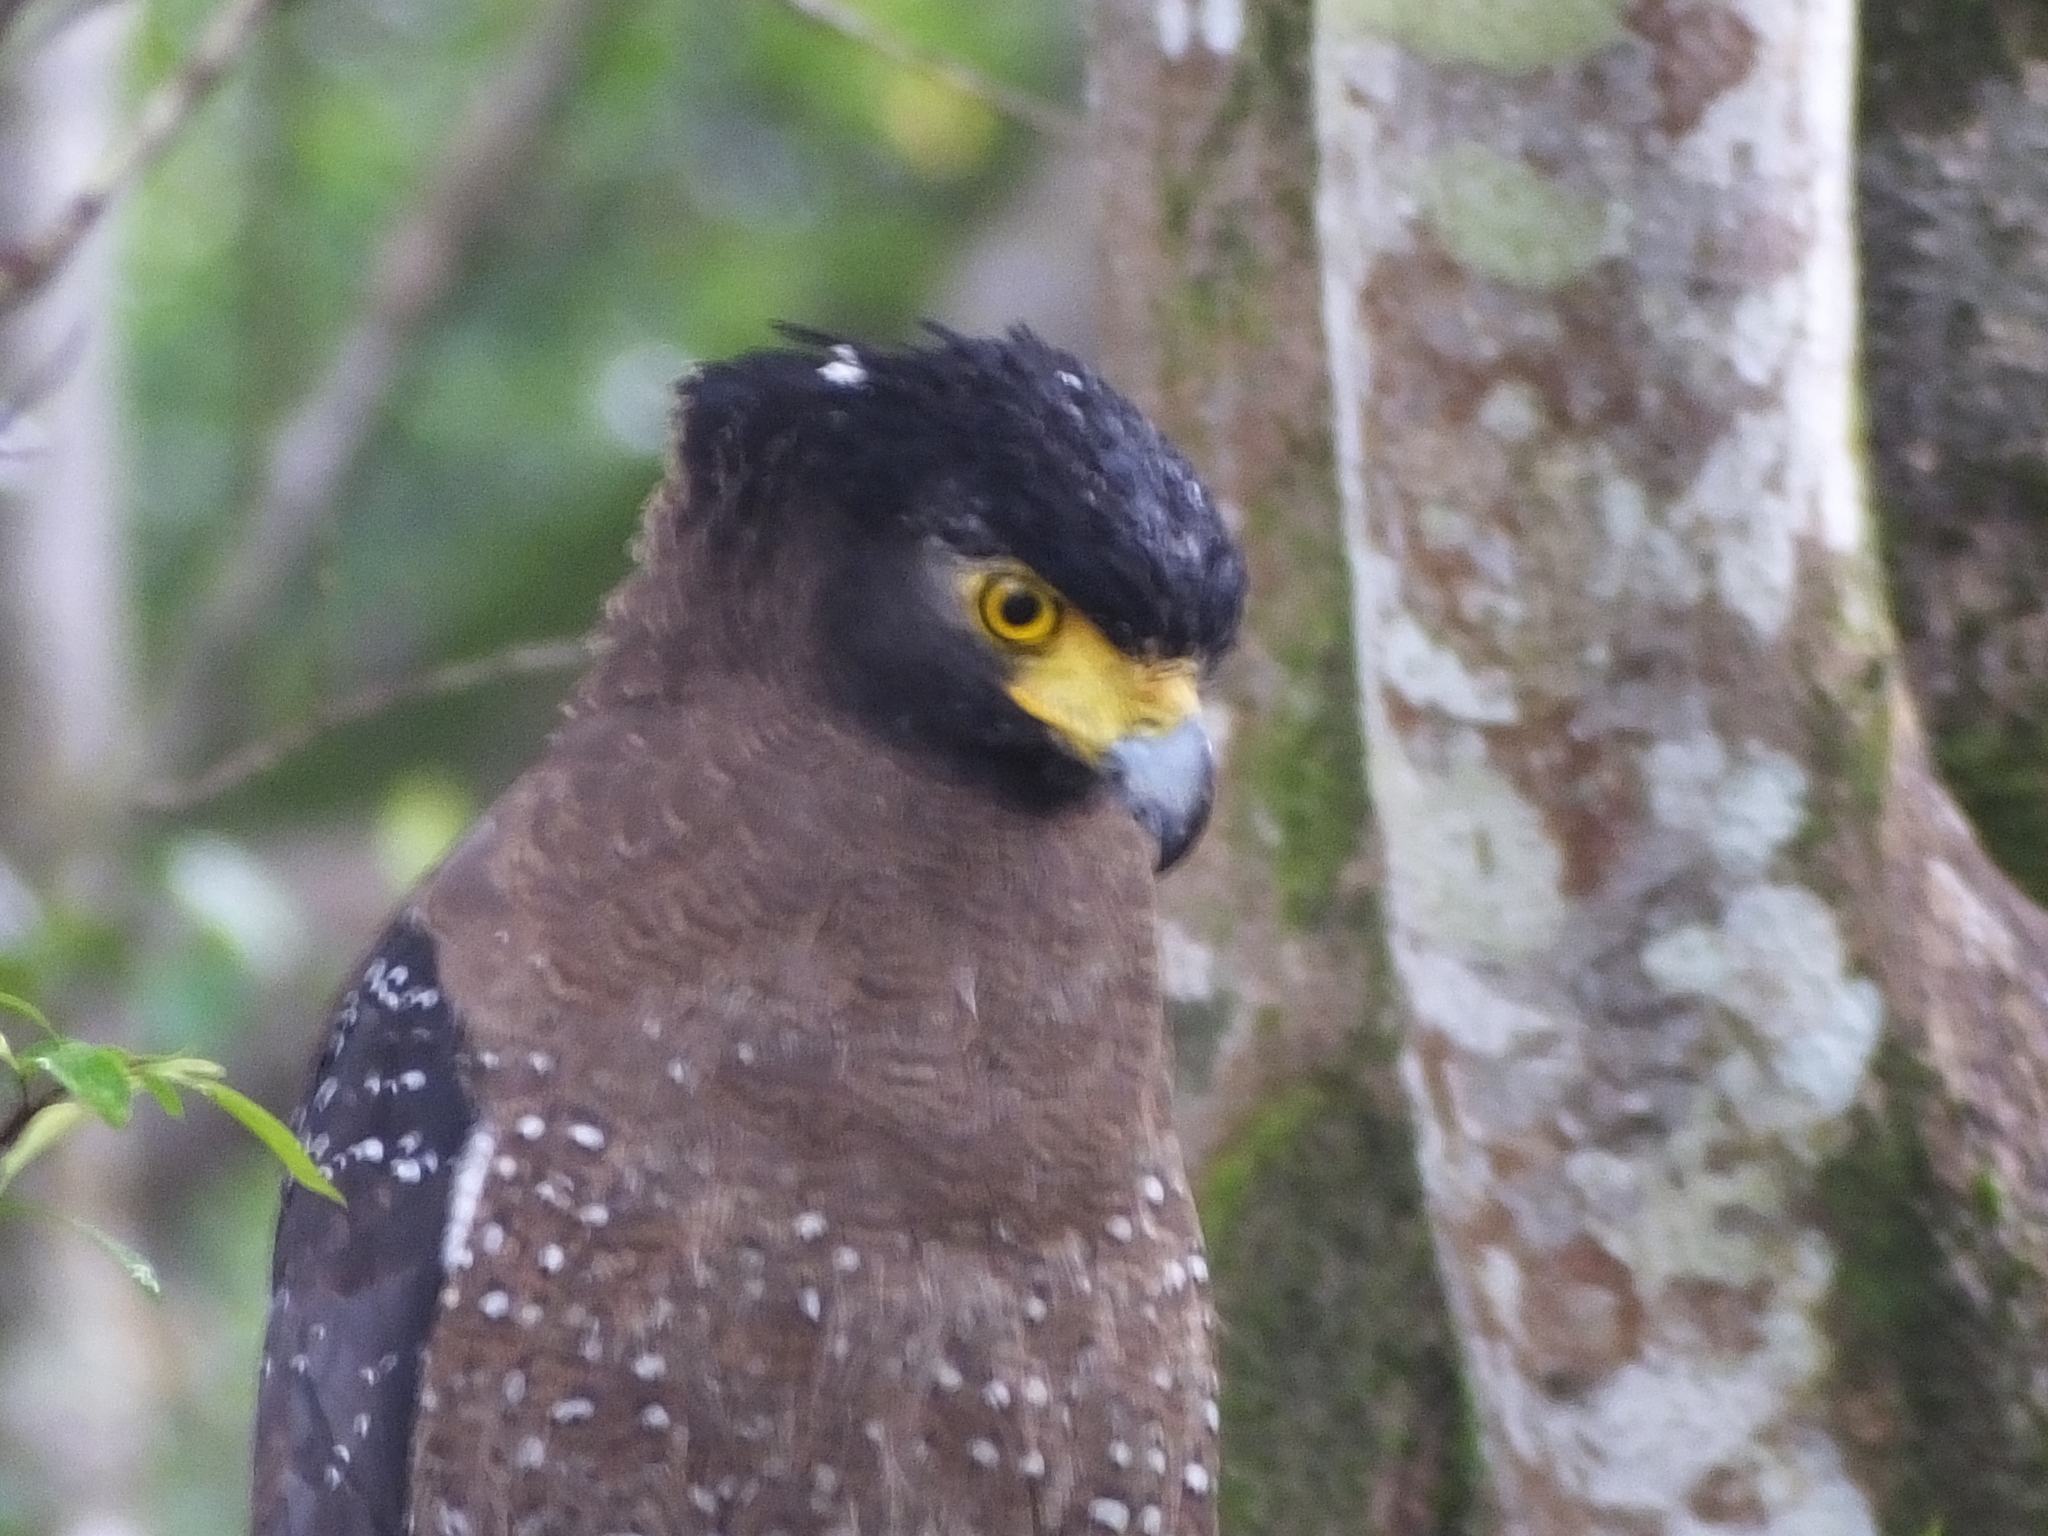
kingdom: Animalia
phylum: Chordata
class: Aves
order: Accipitriformes
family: Accipitridae
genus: Spilornis
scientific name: Spilornis cheela
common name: Crested serpent eagle
